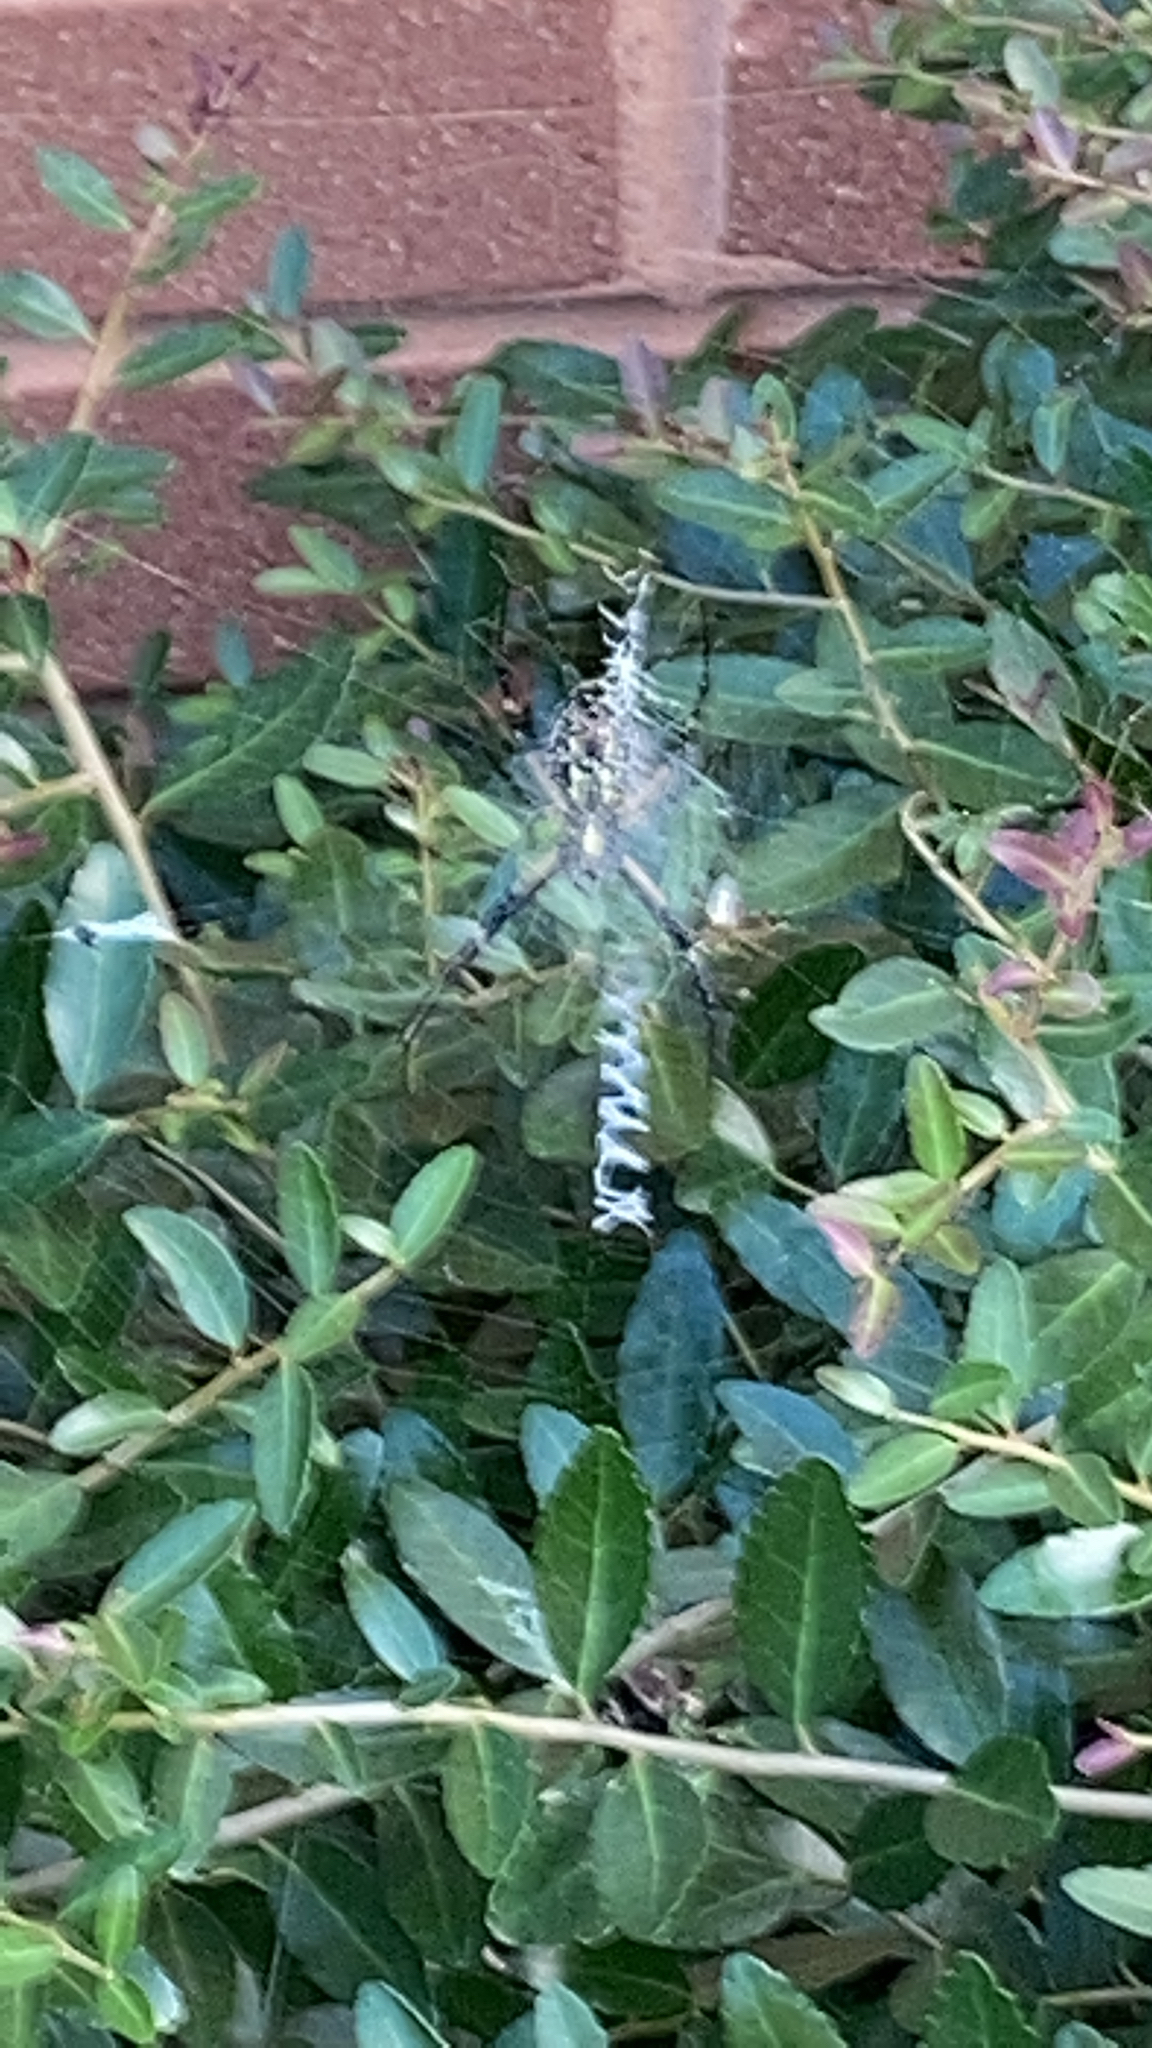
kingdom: Animalia
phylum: Arthropoda
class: Arachnida
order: Araneae
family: Araneidae
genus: Argiope
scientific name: Argiope aurantia
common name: Orb weavers
